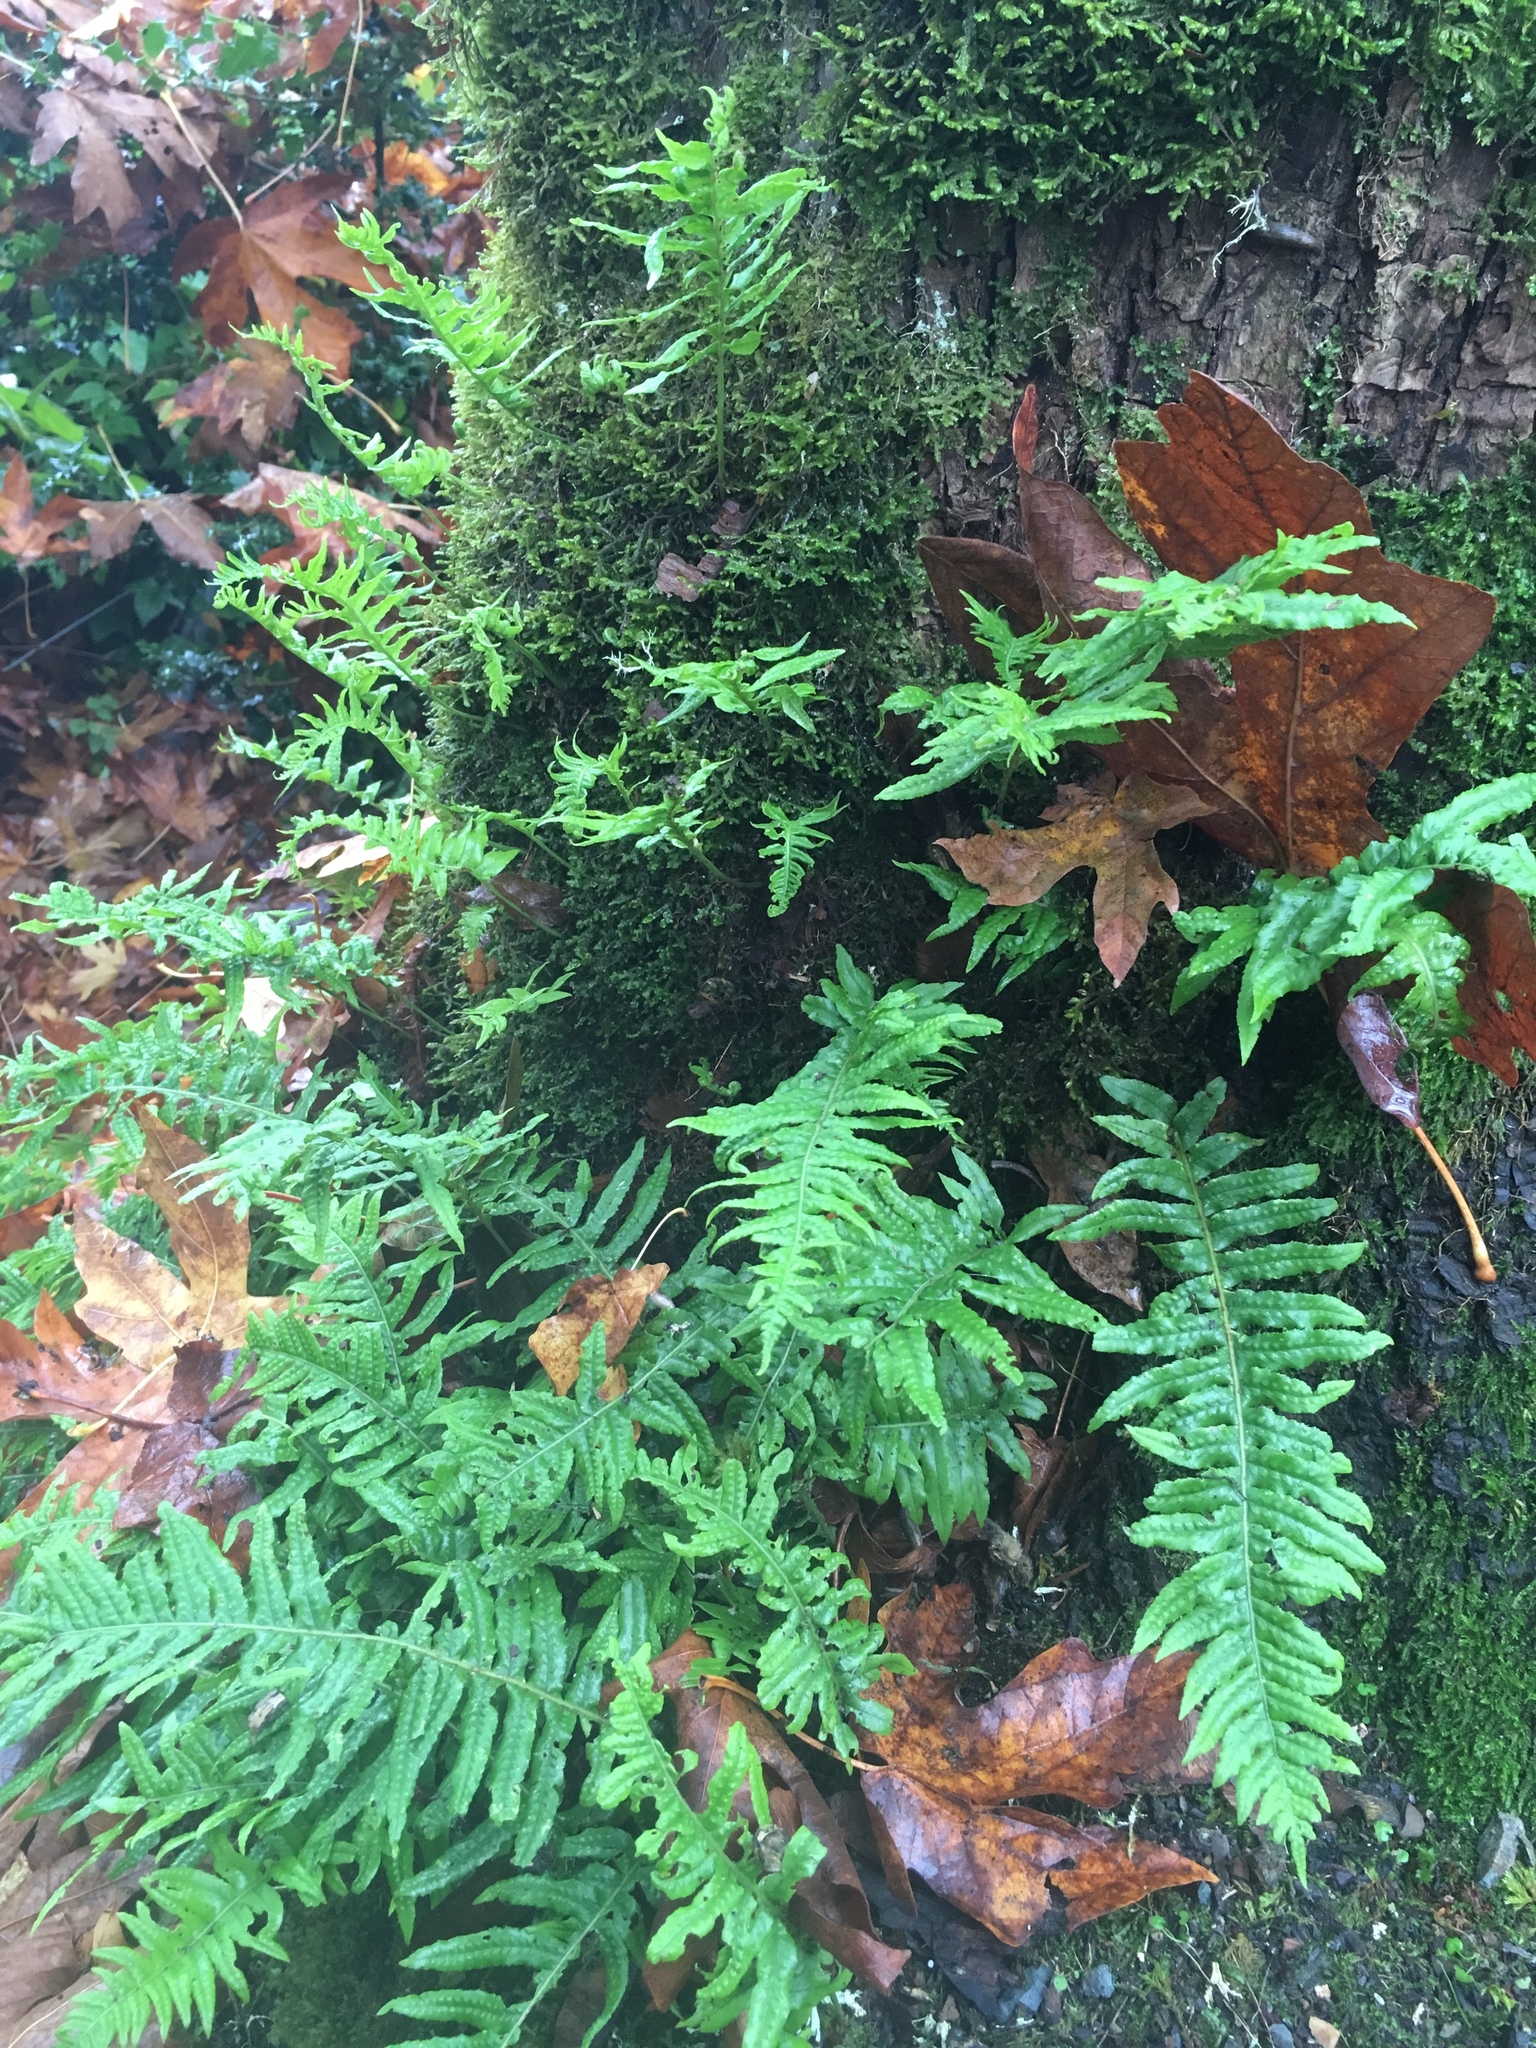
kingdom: Plantae
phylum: Tracheophyta
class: Polypodiopsida
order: Polypodiales
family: Polypodiaceae
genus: Polypodium
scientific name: Polypodium glycyrrhiza
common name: Licorice fern
